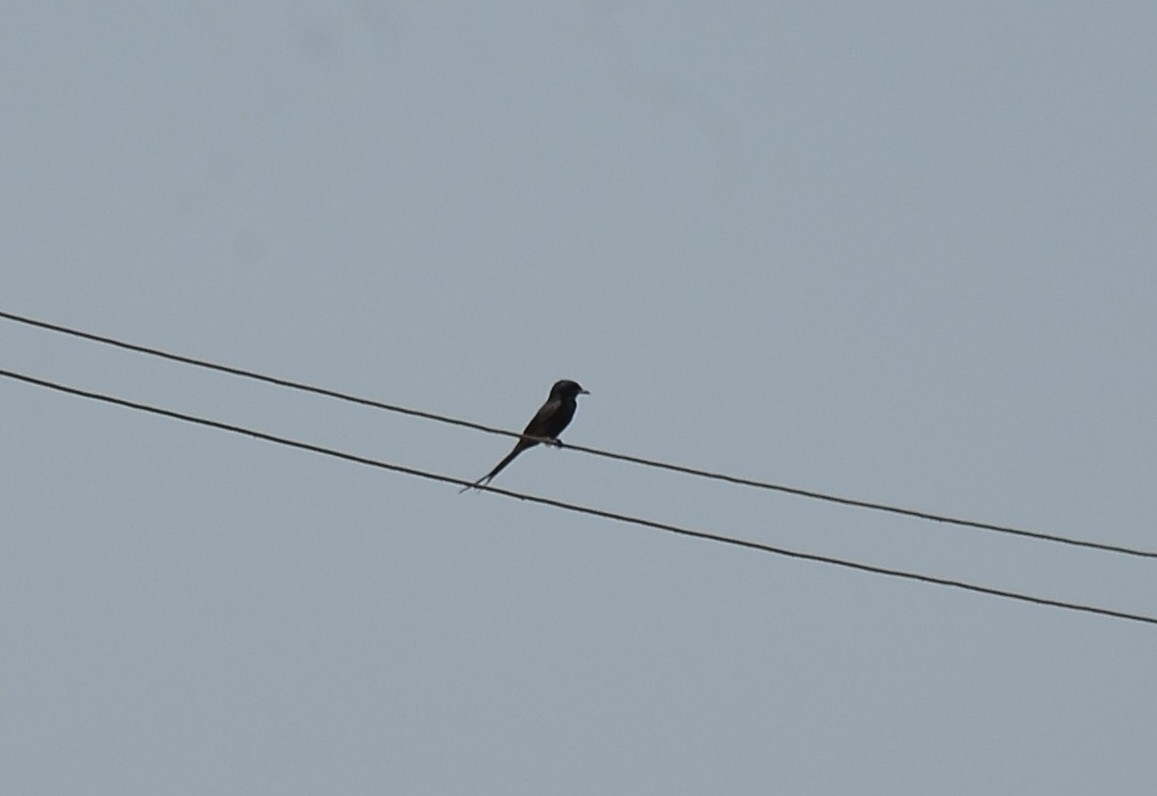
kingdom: Animalia
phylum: Chordata
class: Aves
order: Passeriformes
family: Dicruridae
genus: Dicrurus
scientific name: Dicrurus macrocercus
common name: Black drongo
